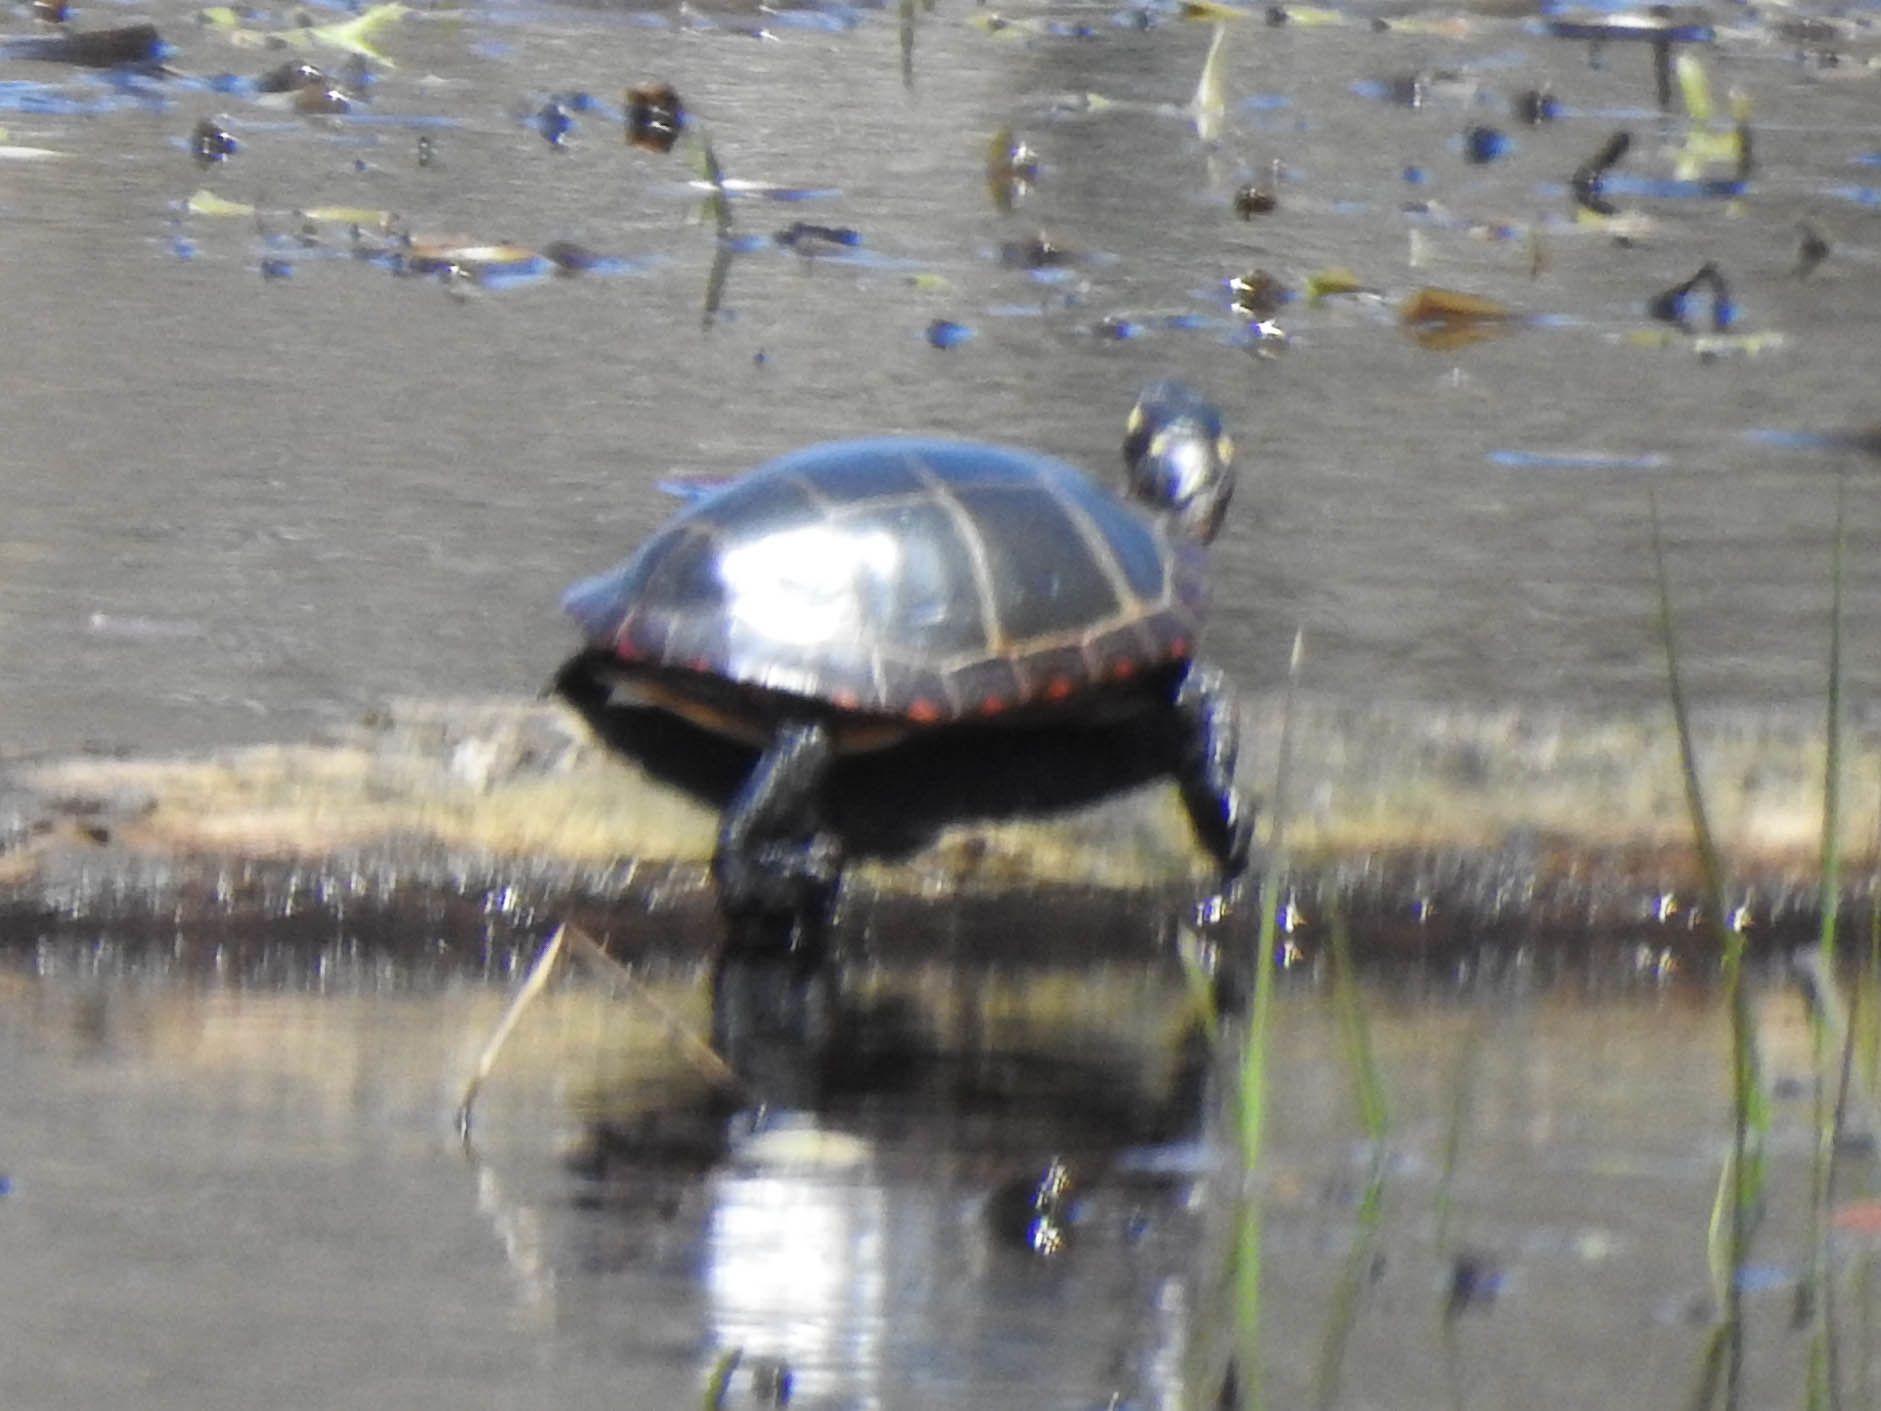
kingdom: Animalia
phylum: Chordata
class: Testudines
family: Emydidae
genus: Chrysemys
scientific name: Chrysemys picta
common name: Painted turtle
